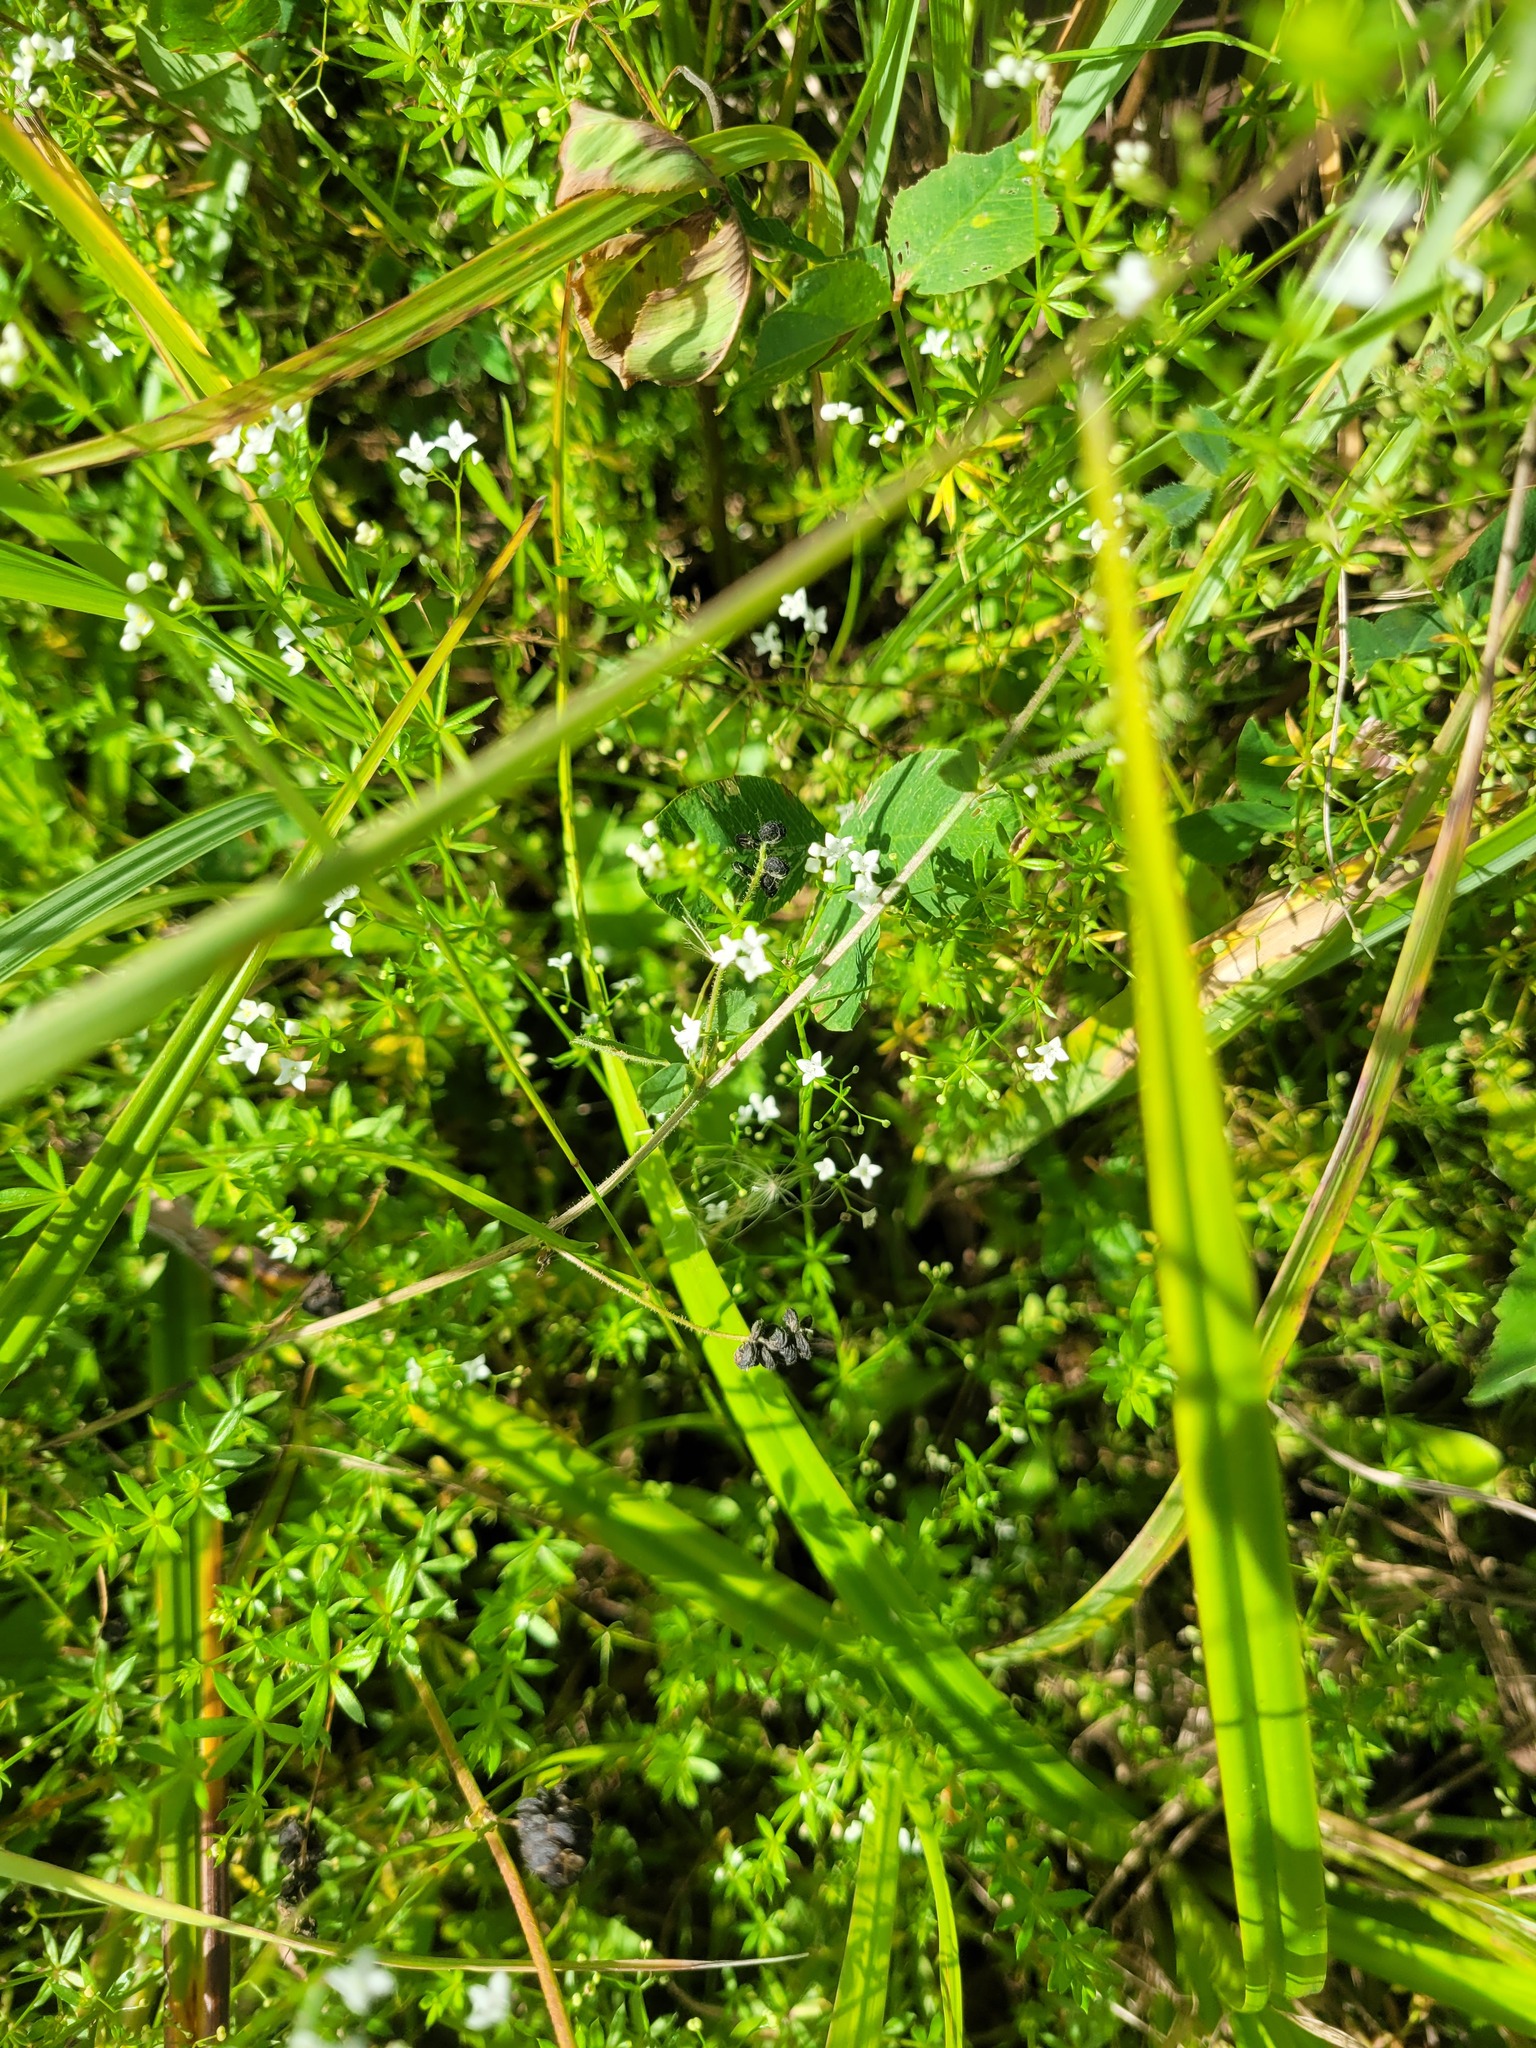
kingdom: Plantae
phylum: Tracheophyta
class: Magnoliopsida
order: Gentianales
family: Rubiaceae
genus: Galium
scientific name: Galium uliginosum
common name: Fen bedstraw
